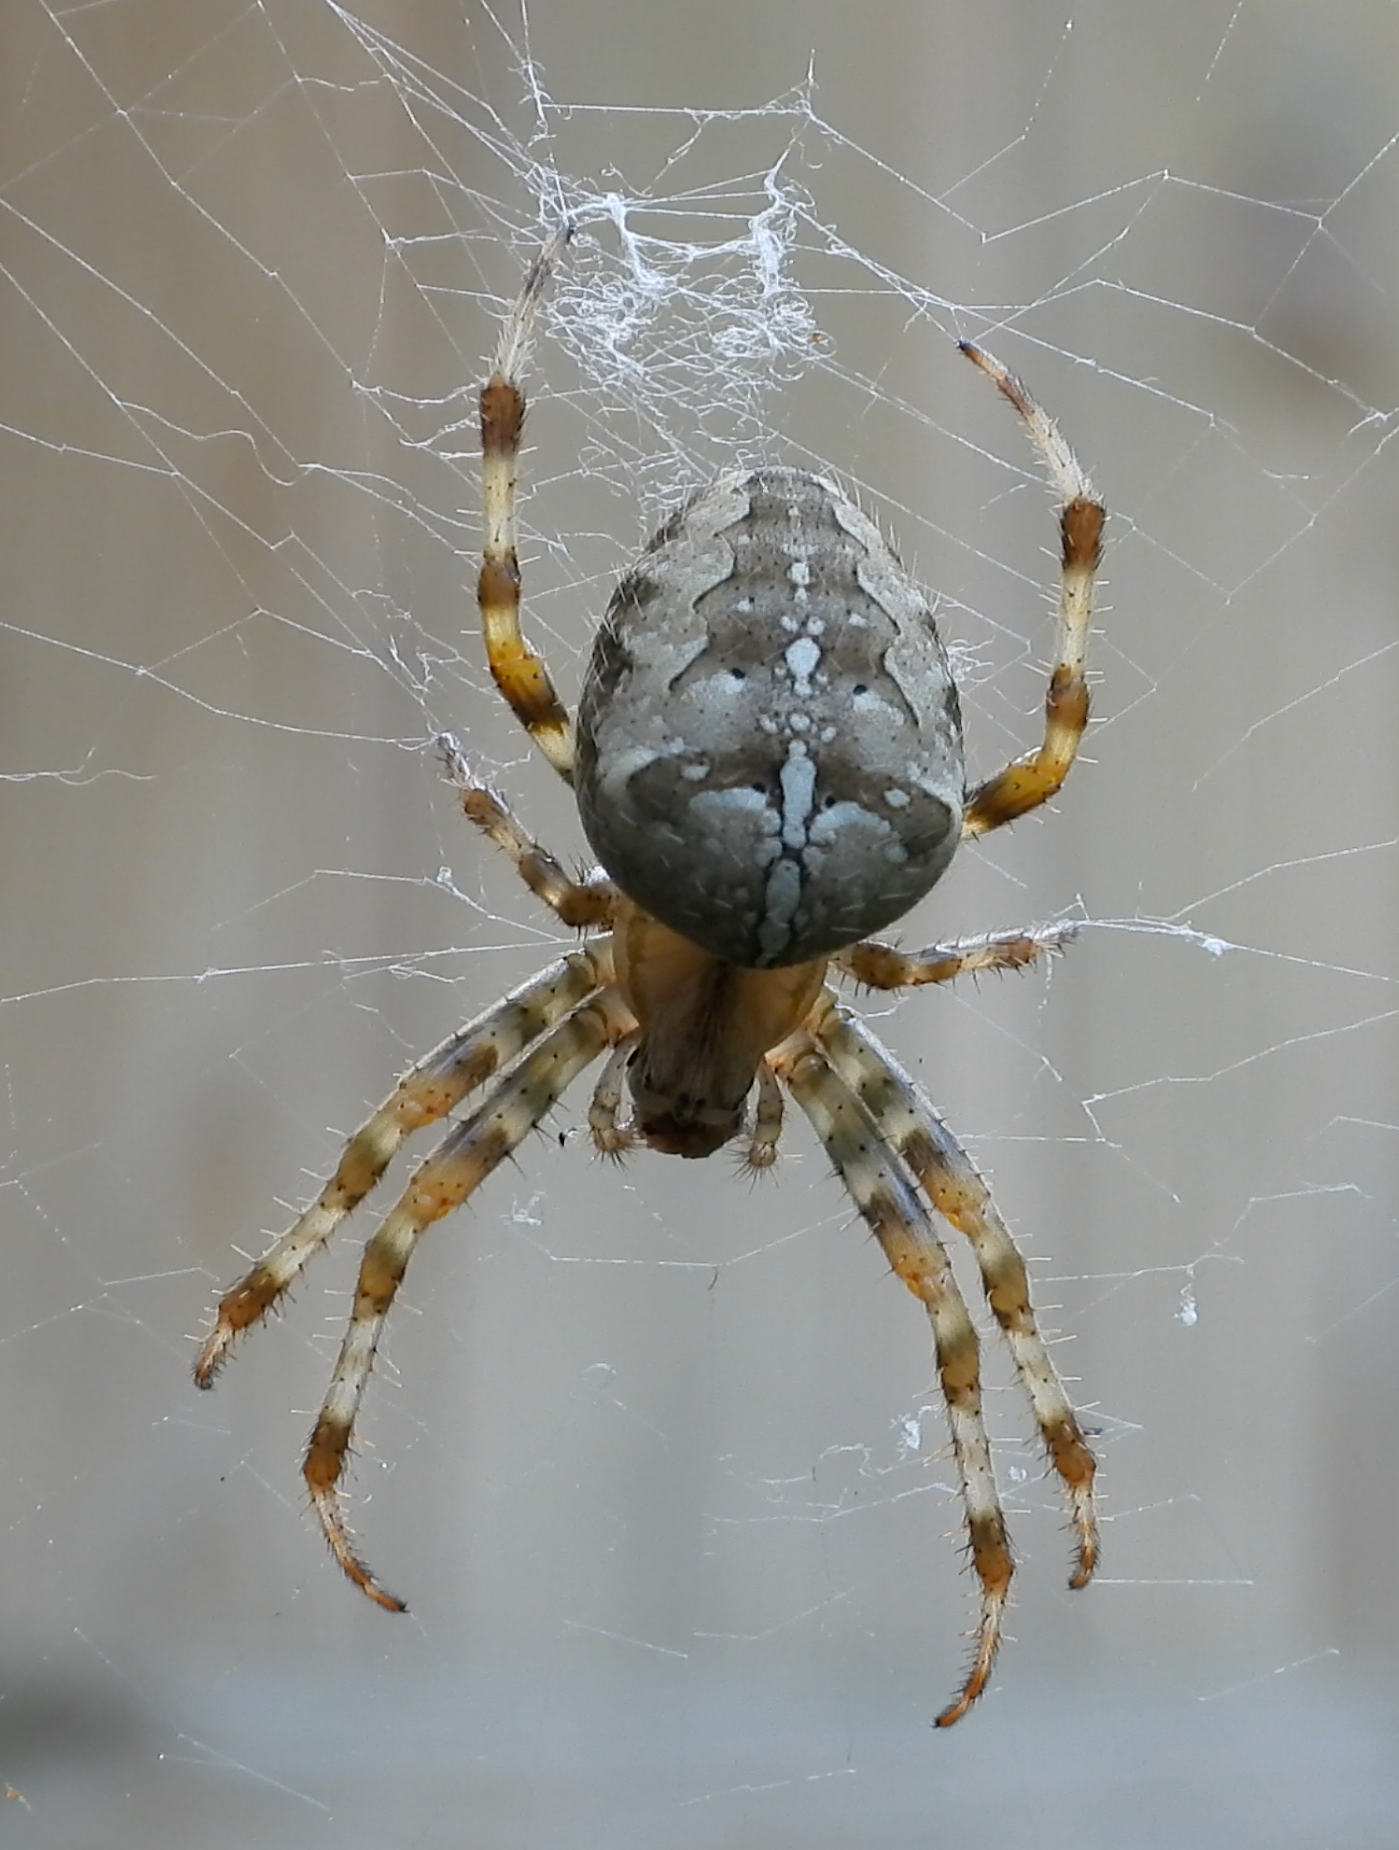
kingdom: Animalia
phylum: Arthropoda
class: Arachnida
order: Araneae
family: Araneidae
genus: Araneus
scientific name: Araneus diadematus
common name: Cross orbweaver
